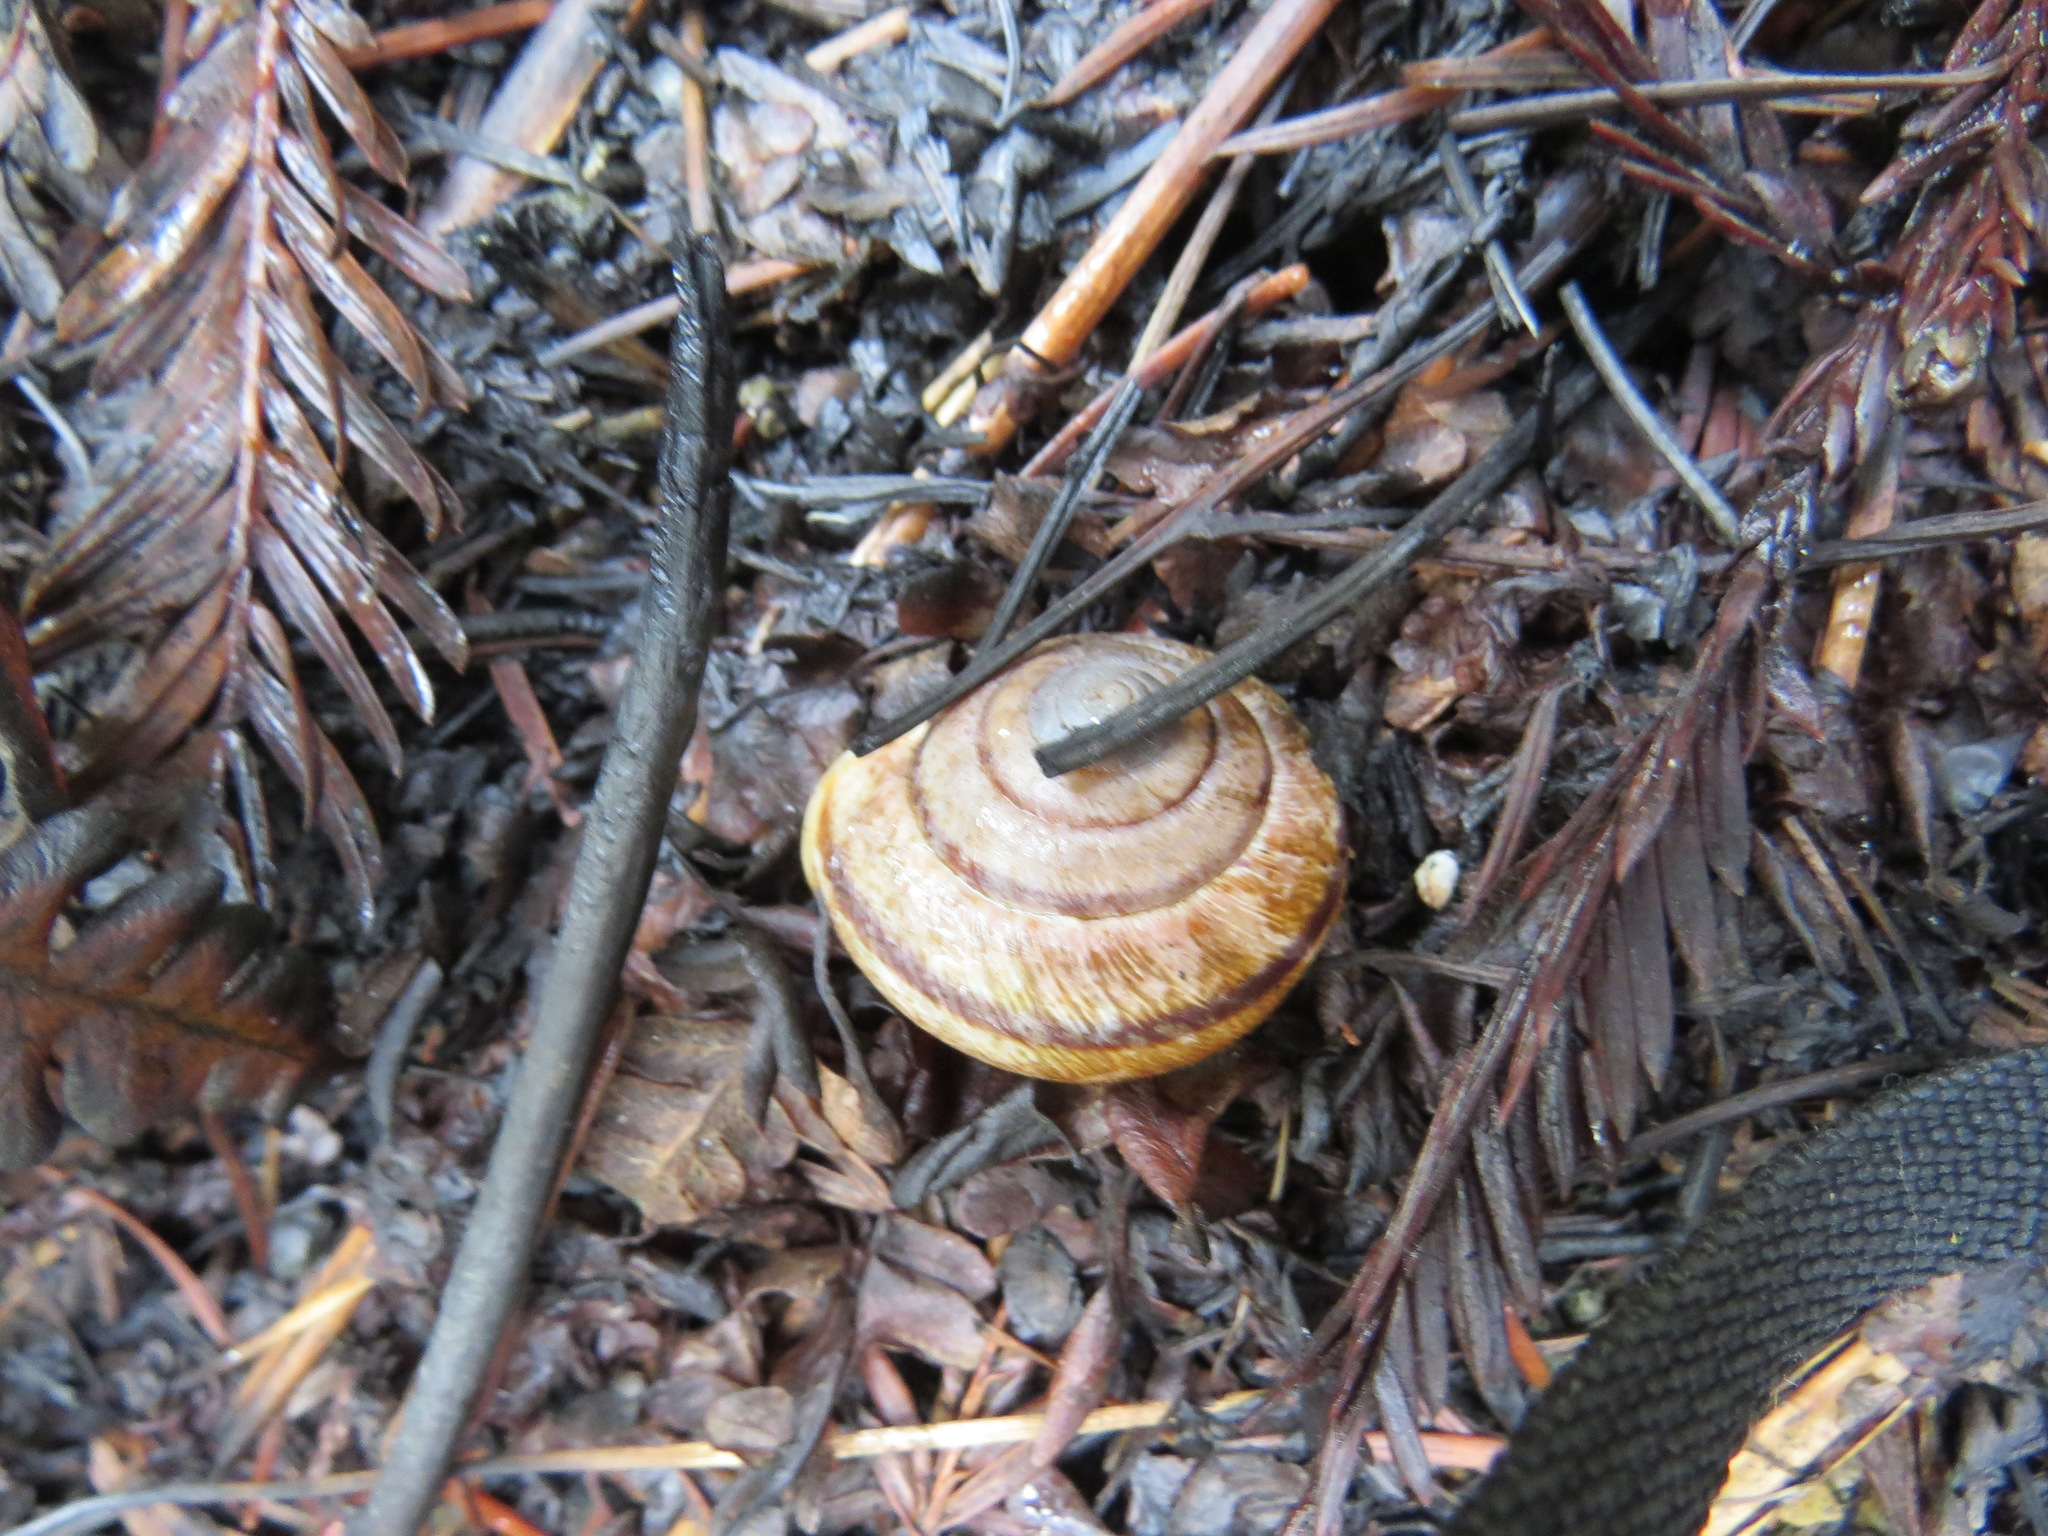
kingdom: Animalia
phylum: Mollusca
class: Gastropoda
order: Stylommatophora
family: Xanthonychidae
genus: Helminthoglypta
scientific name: Helminthoglypta exarata
